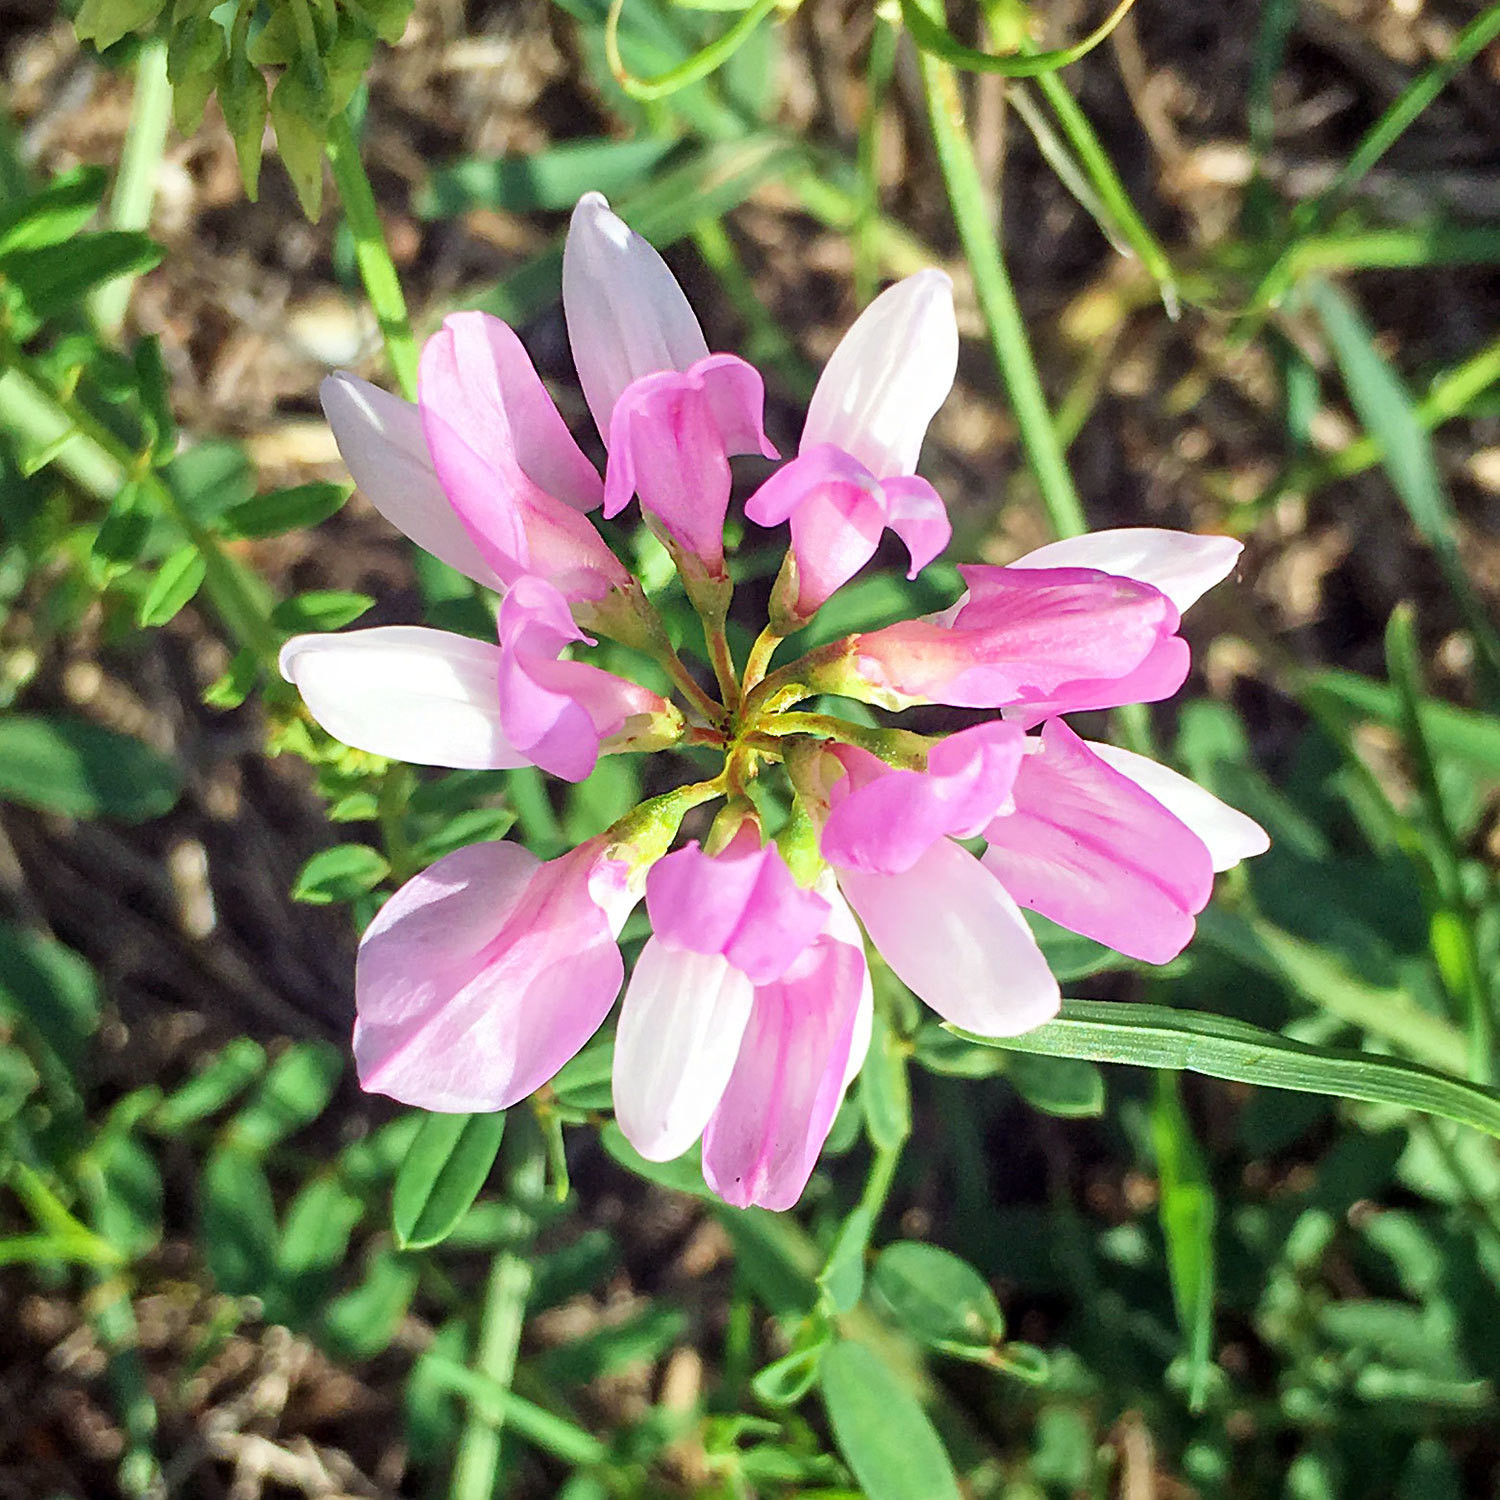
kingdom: Plantae
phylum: Tracheophyta
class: Magnoliopsida
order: Fabales
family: Fabaceae
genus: Coronilla
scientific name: Coronilla varia
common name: Crownvetch
